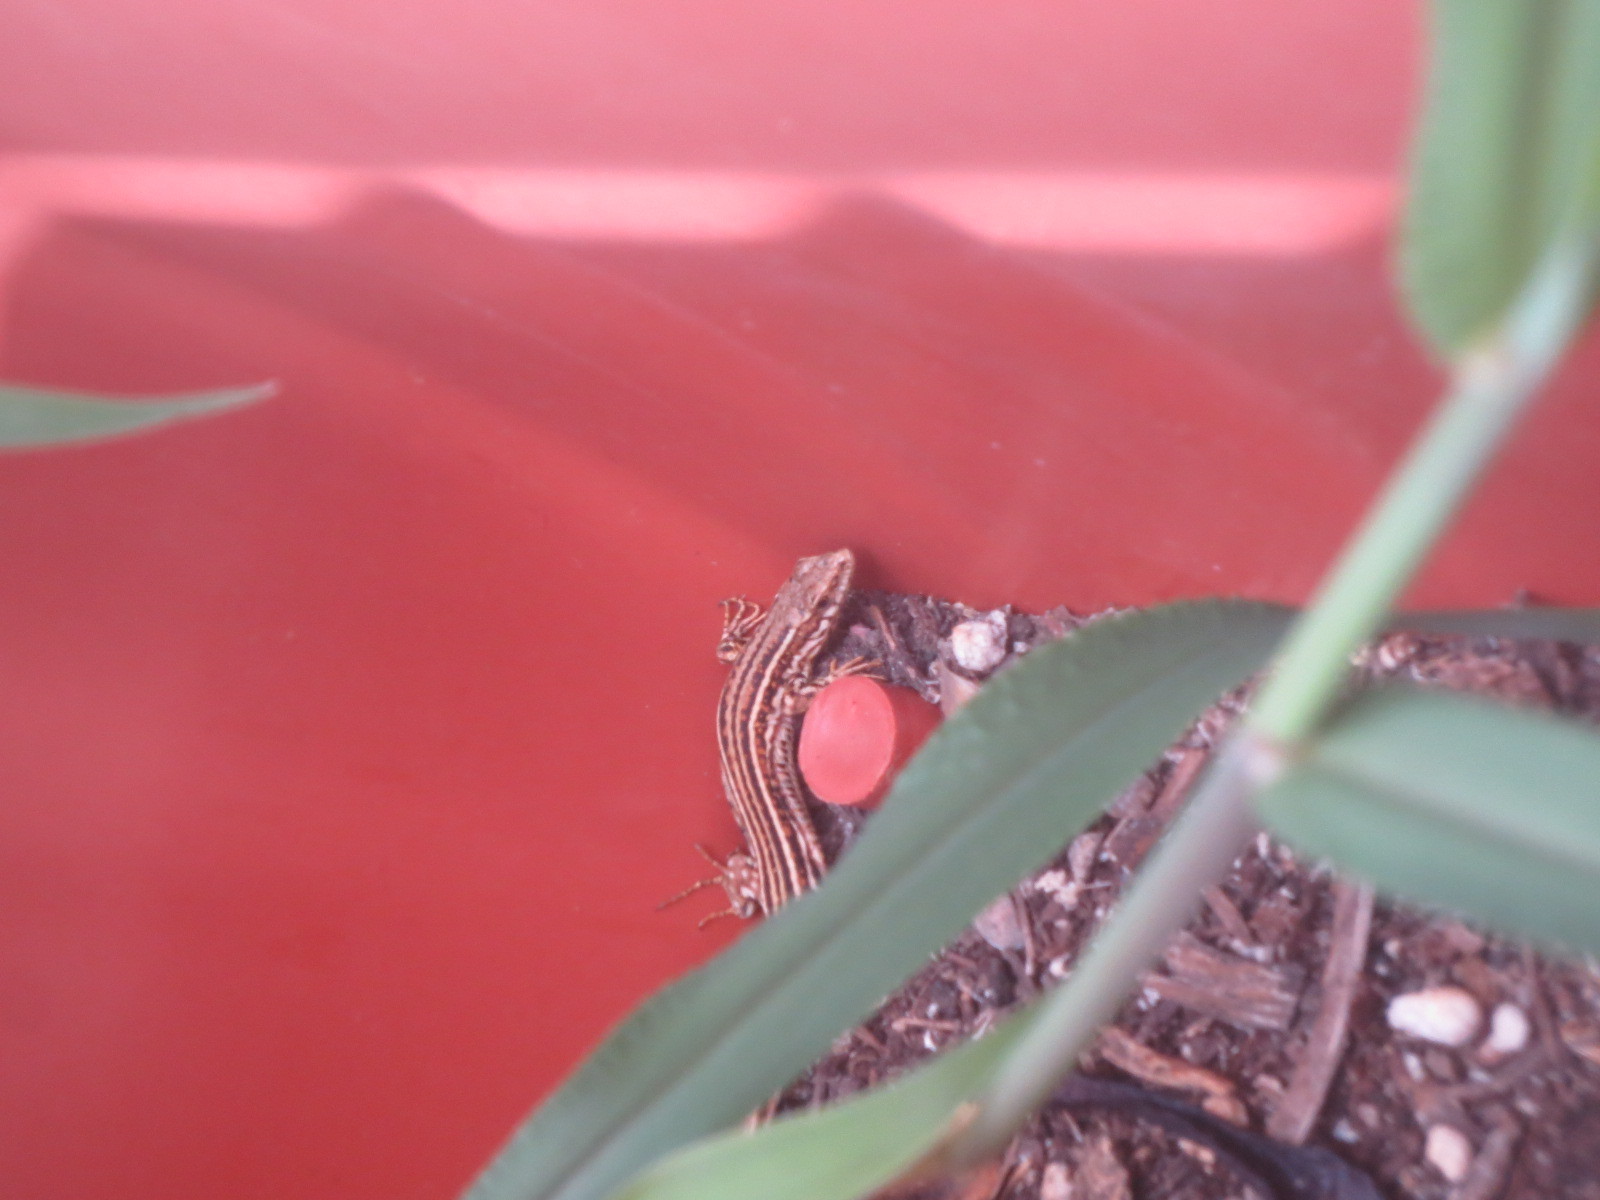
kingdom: Animalia
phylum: Chordata
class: Squamata
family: Lacertidae
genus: Podarcis
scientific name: Podarcis liolepis
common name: Catalonian wall lizard
